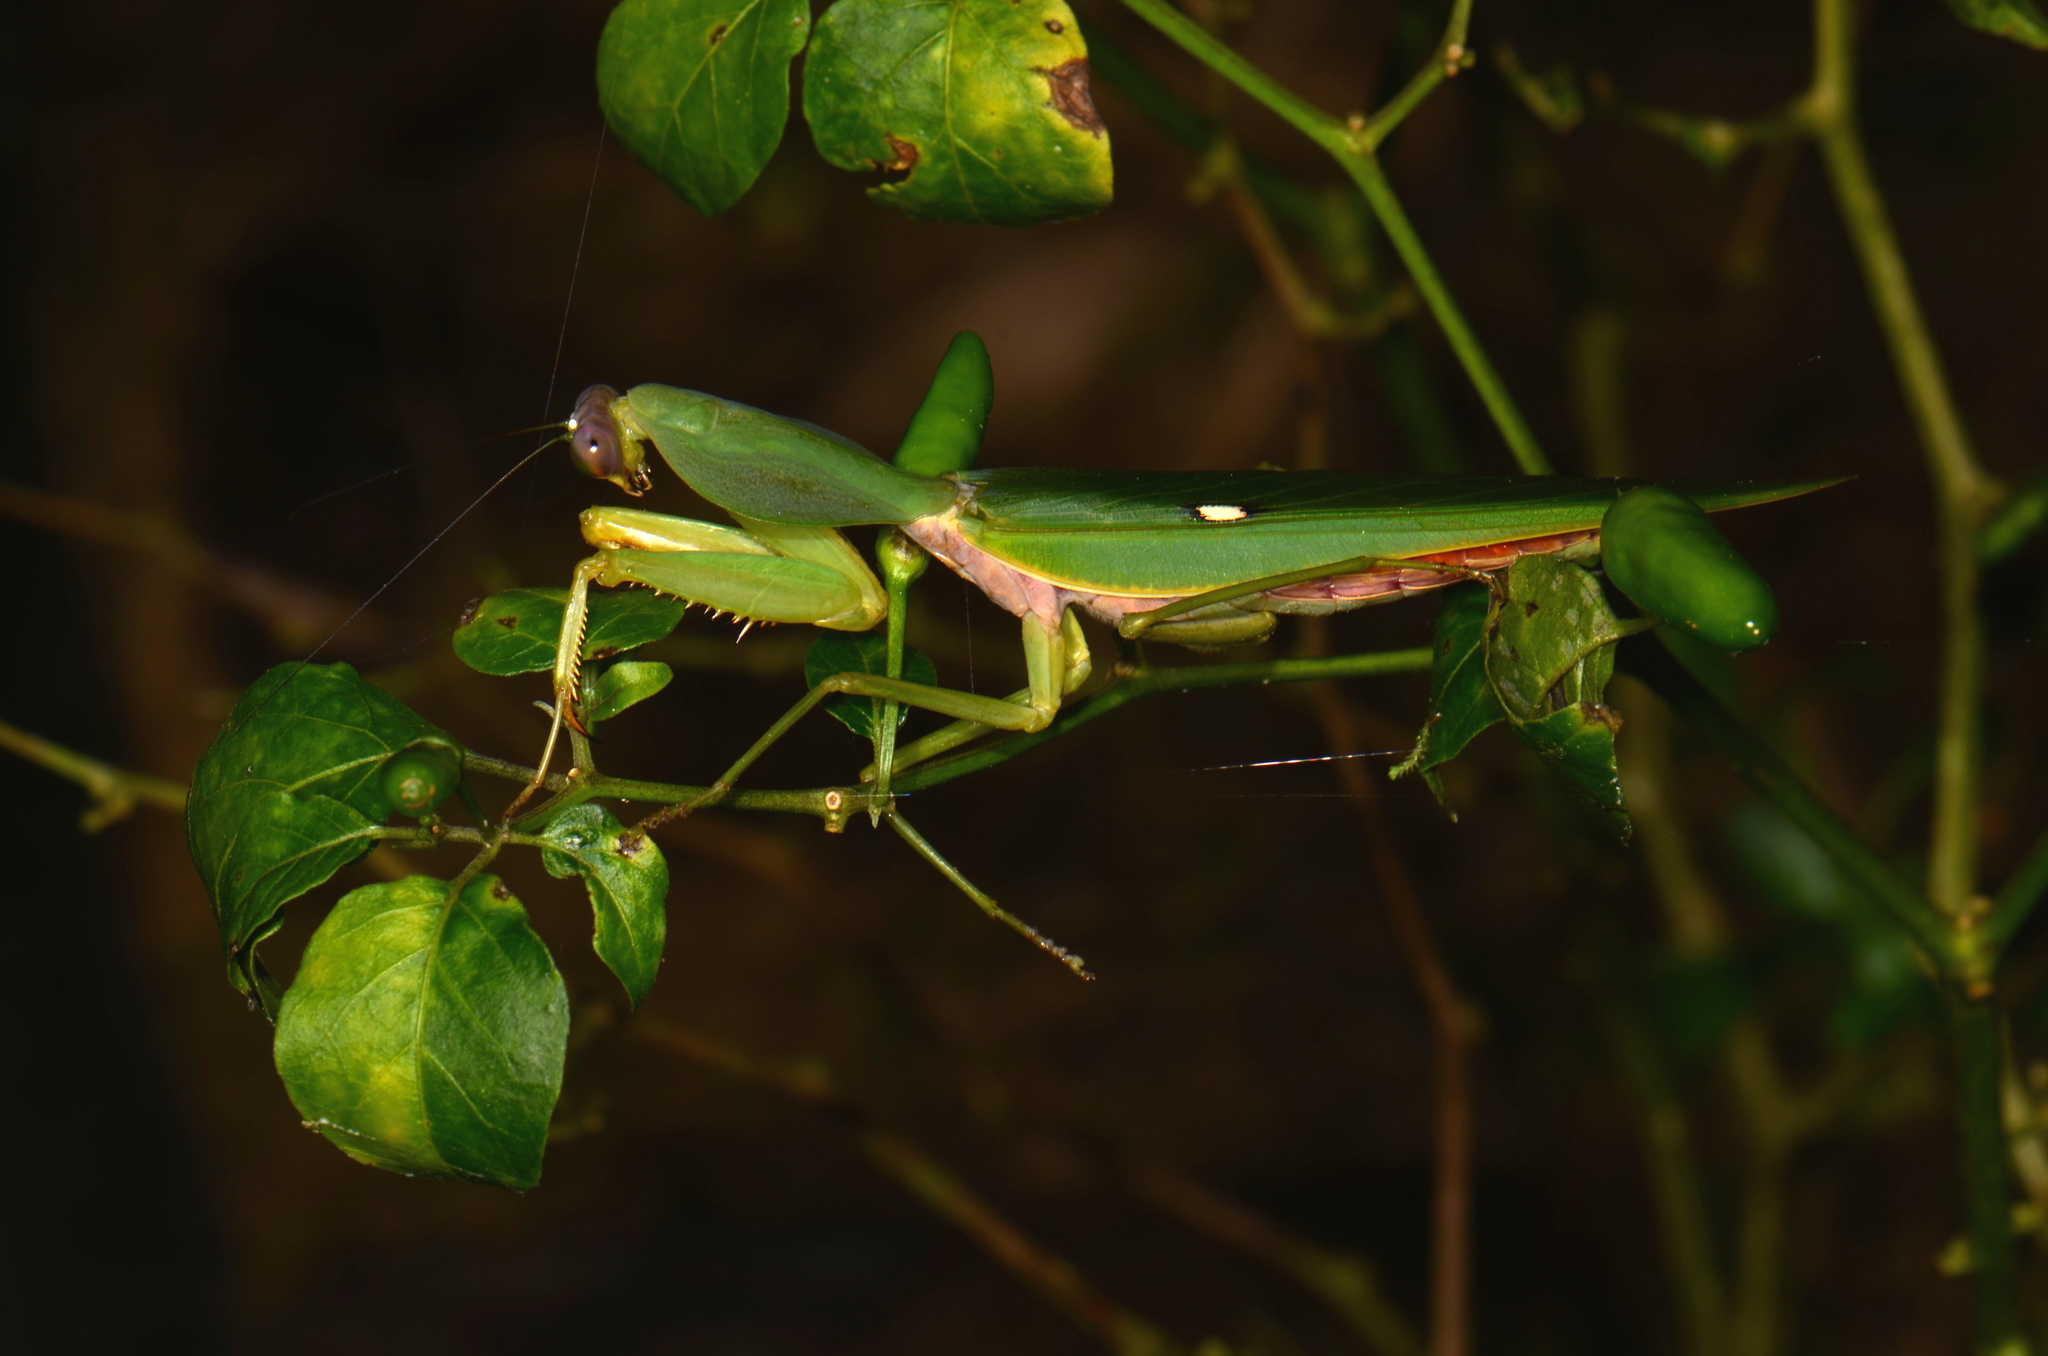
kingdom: Animalia
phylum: Arthropoda
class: Insecta
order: Mantodea
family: Mantidae
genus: Rhombodera
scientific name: Rhombodera basalis
